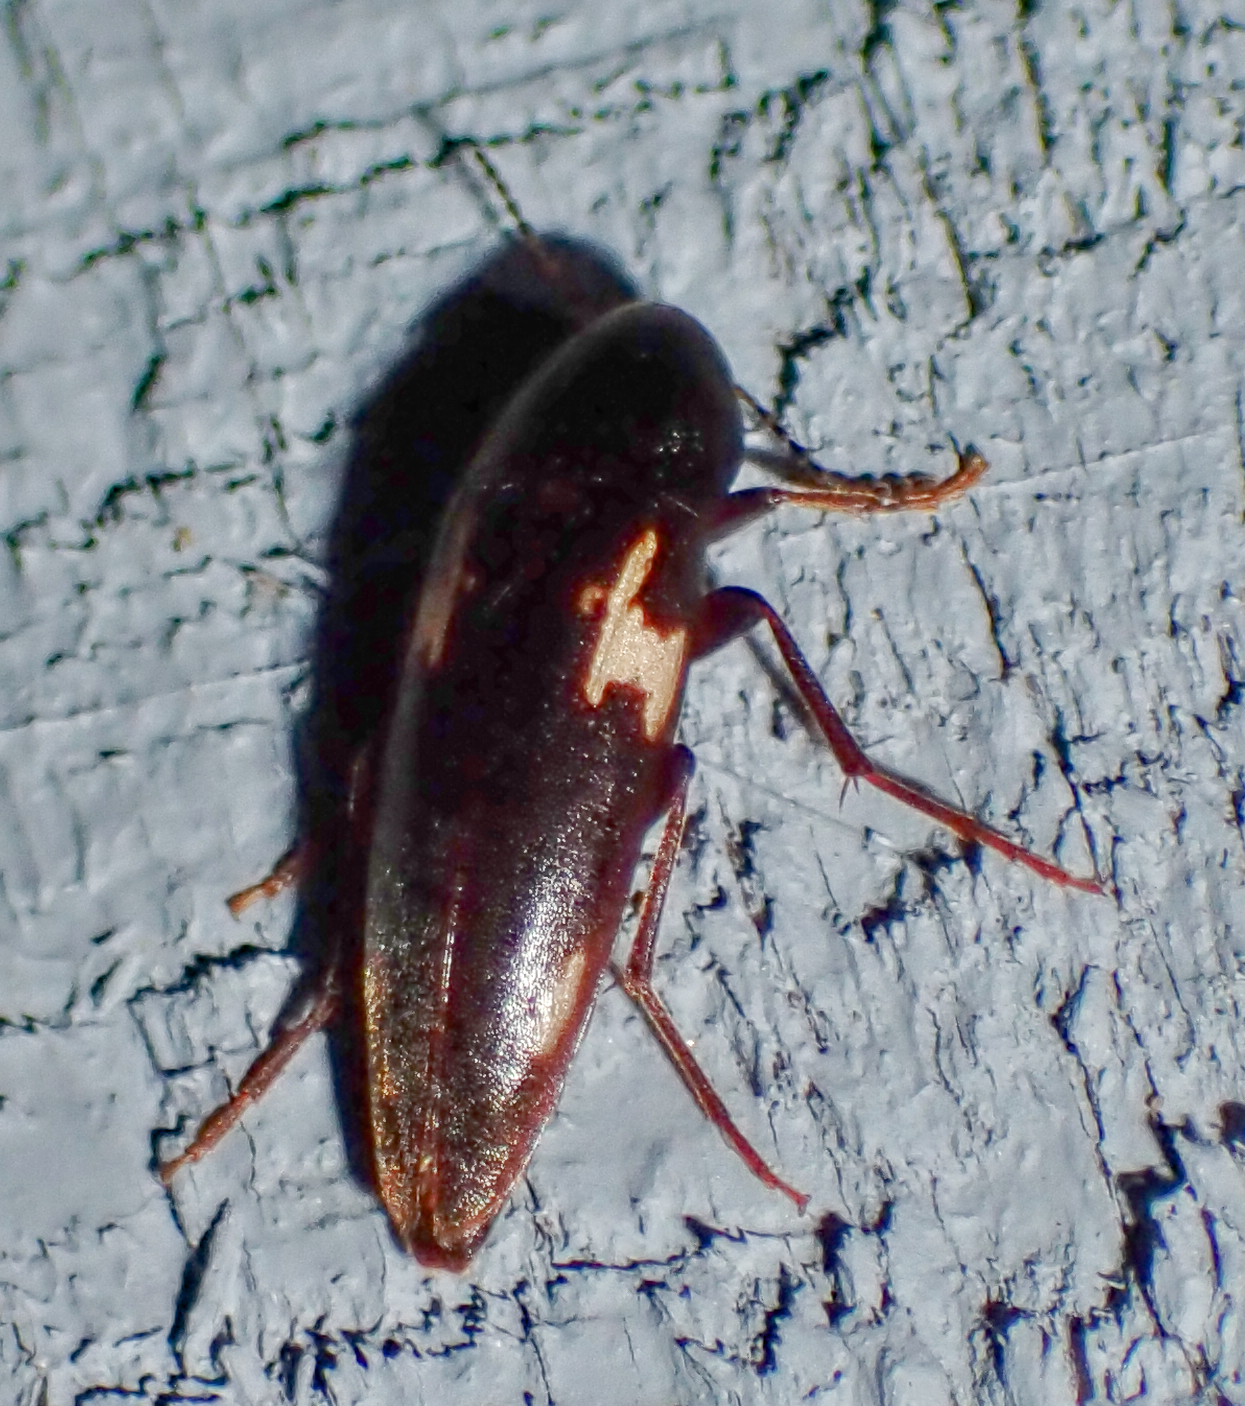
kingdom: Animalia
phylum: Arthropoda
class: Insecta
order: Coleoptera
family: Melandryidae
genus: Dircaea
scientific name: Dircaea liturata
